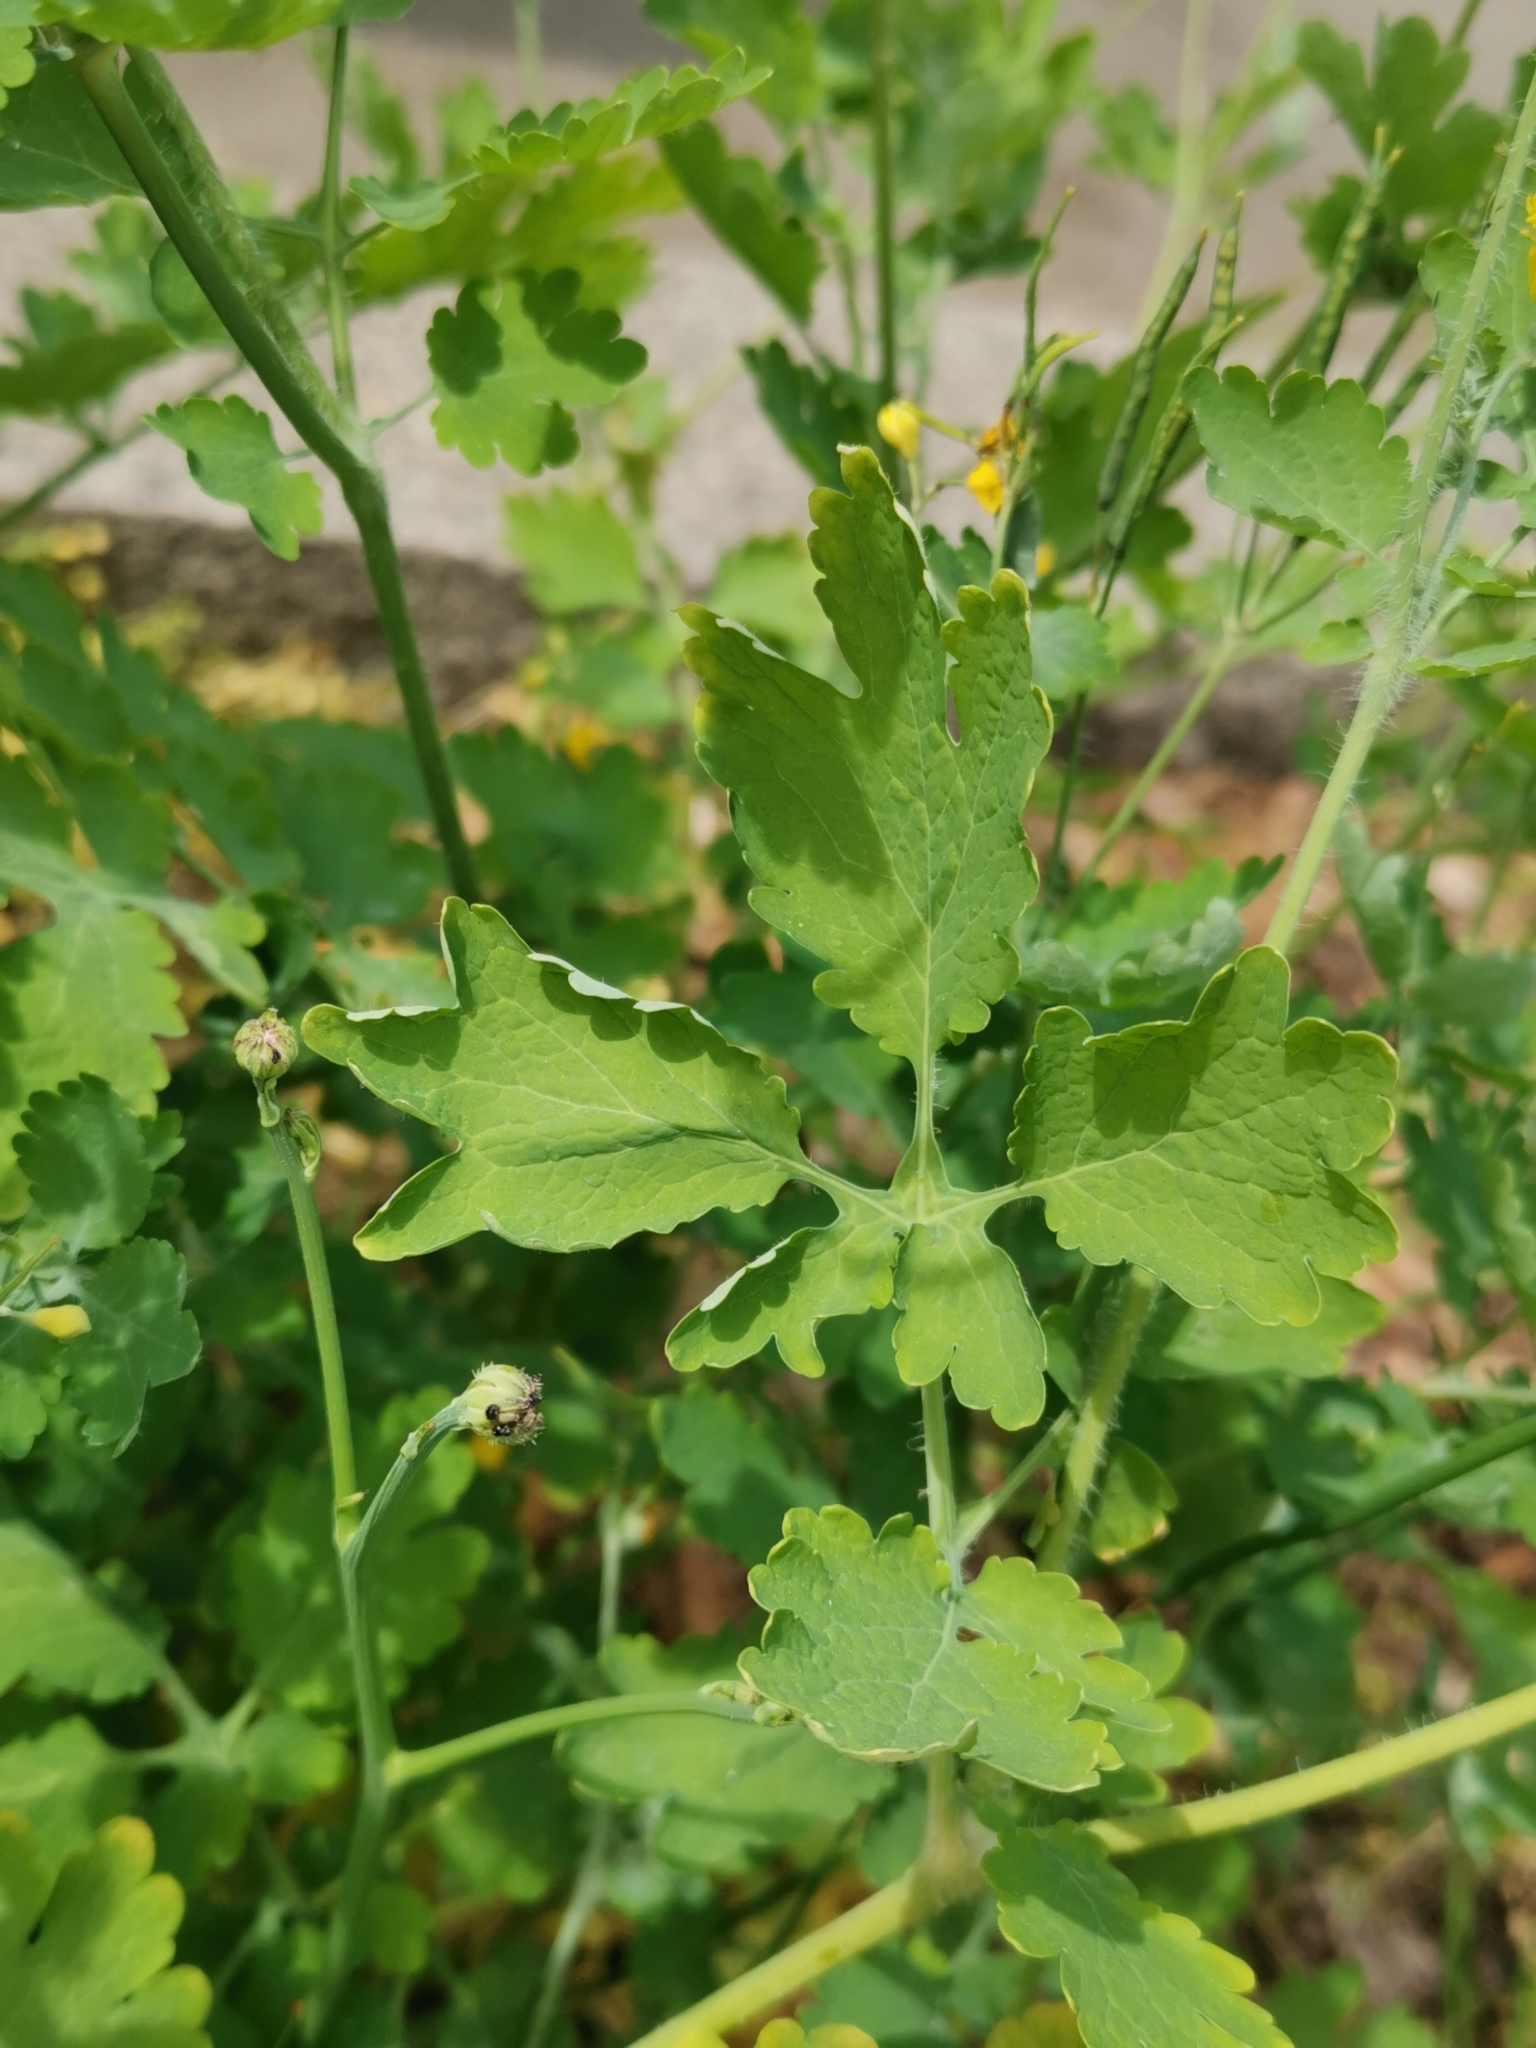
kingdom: Plantae
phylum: Tracheophyta
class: Magnoliopsida
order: Ranunculales
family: Papaveraceae
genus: Chelidonium
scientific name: Chelidonium majus
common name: Greater celandine
